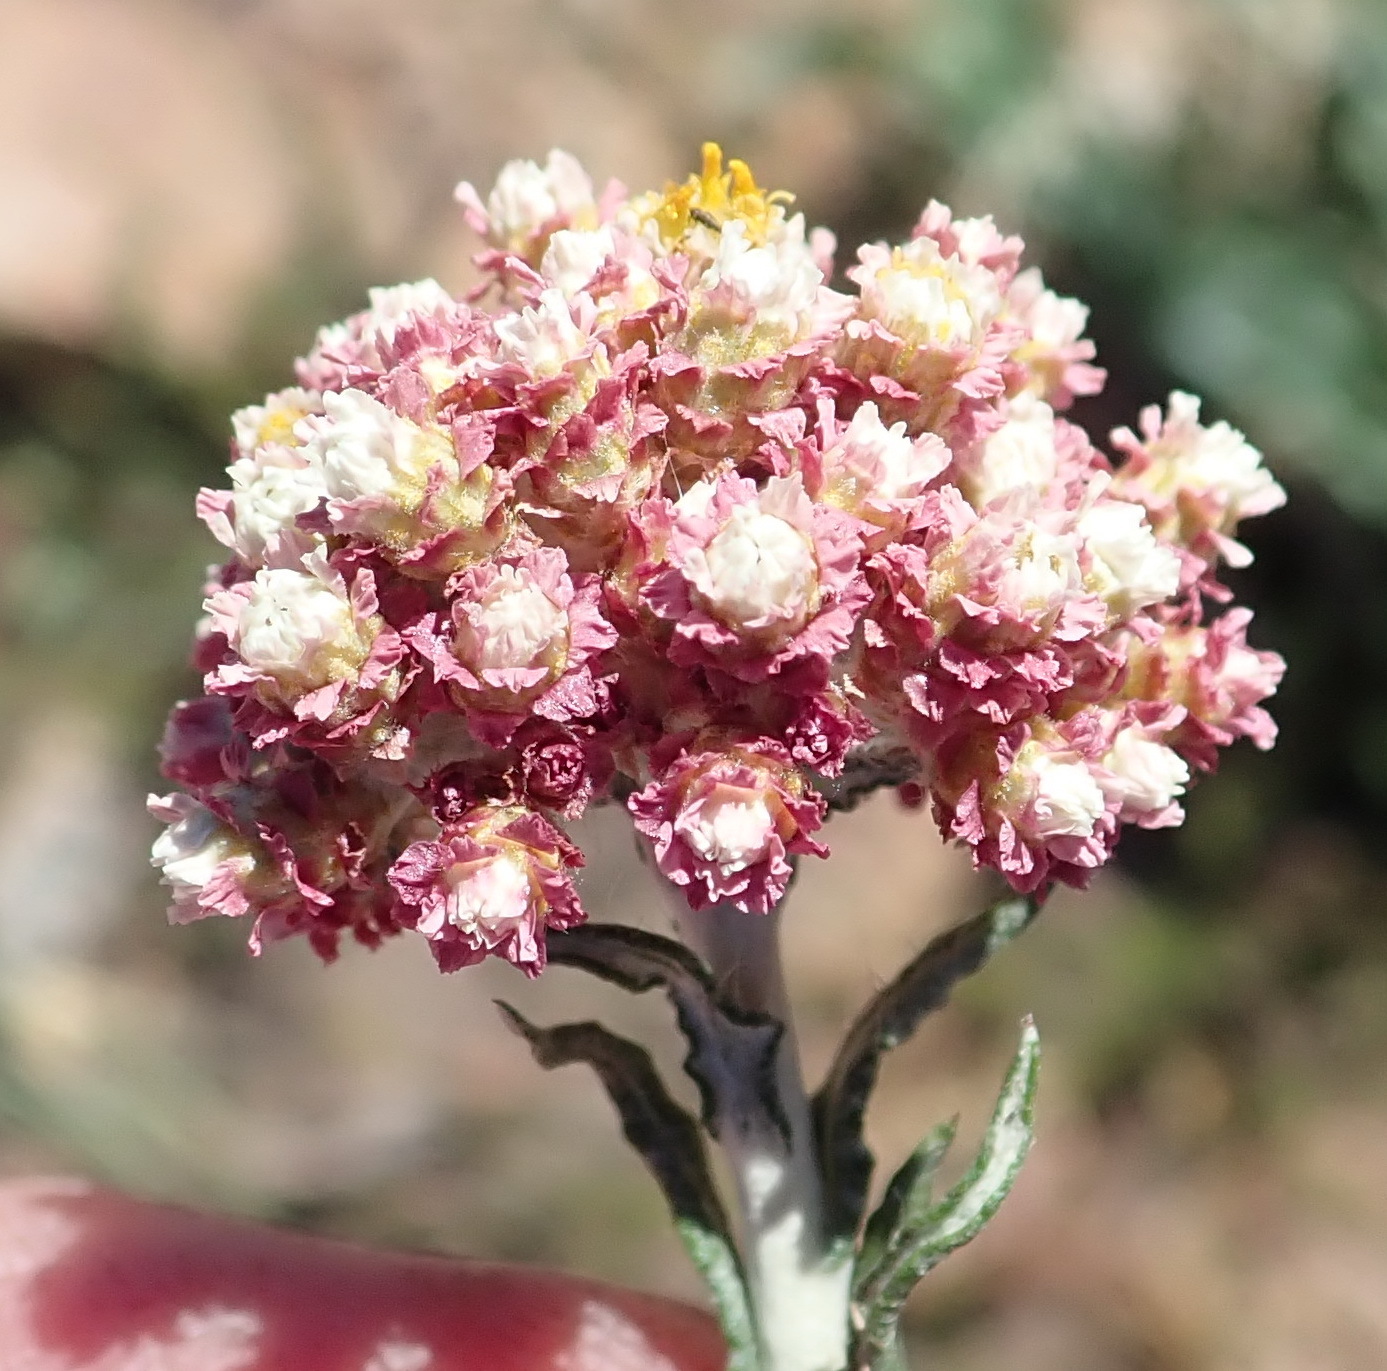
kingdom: Plantae
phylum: Tracheophyta
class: Magnoliopsida
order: Asterales
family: Asteraceae
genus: Helichrysum
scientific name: Helichrysum felinum
